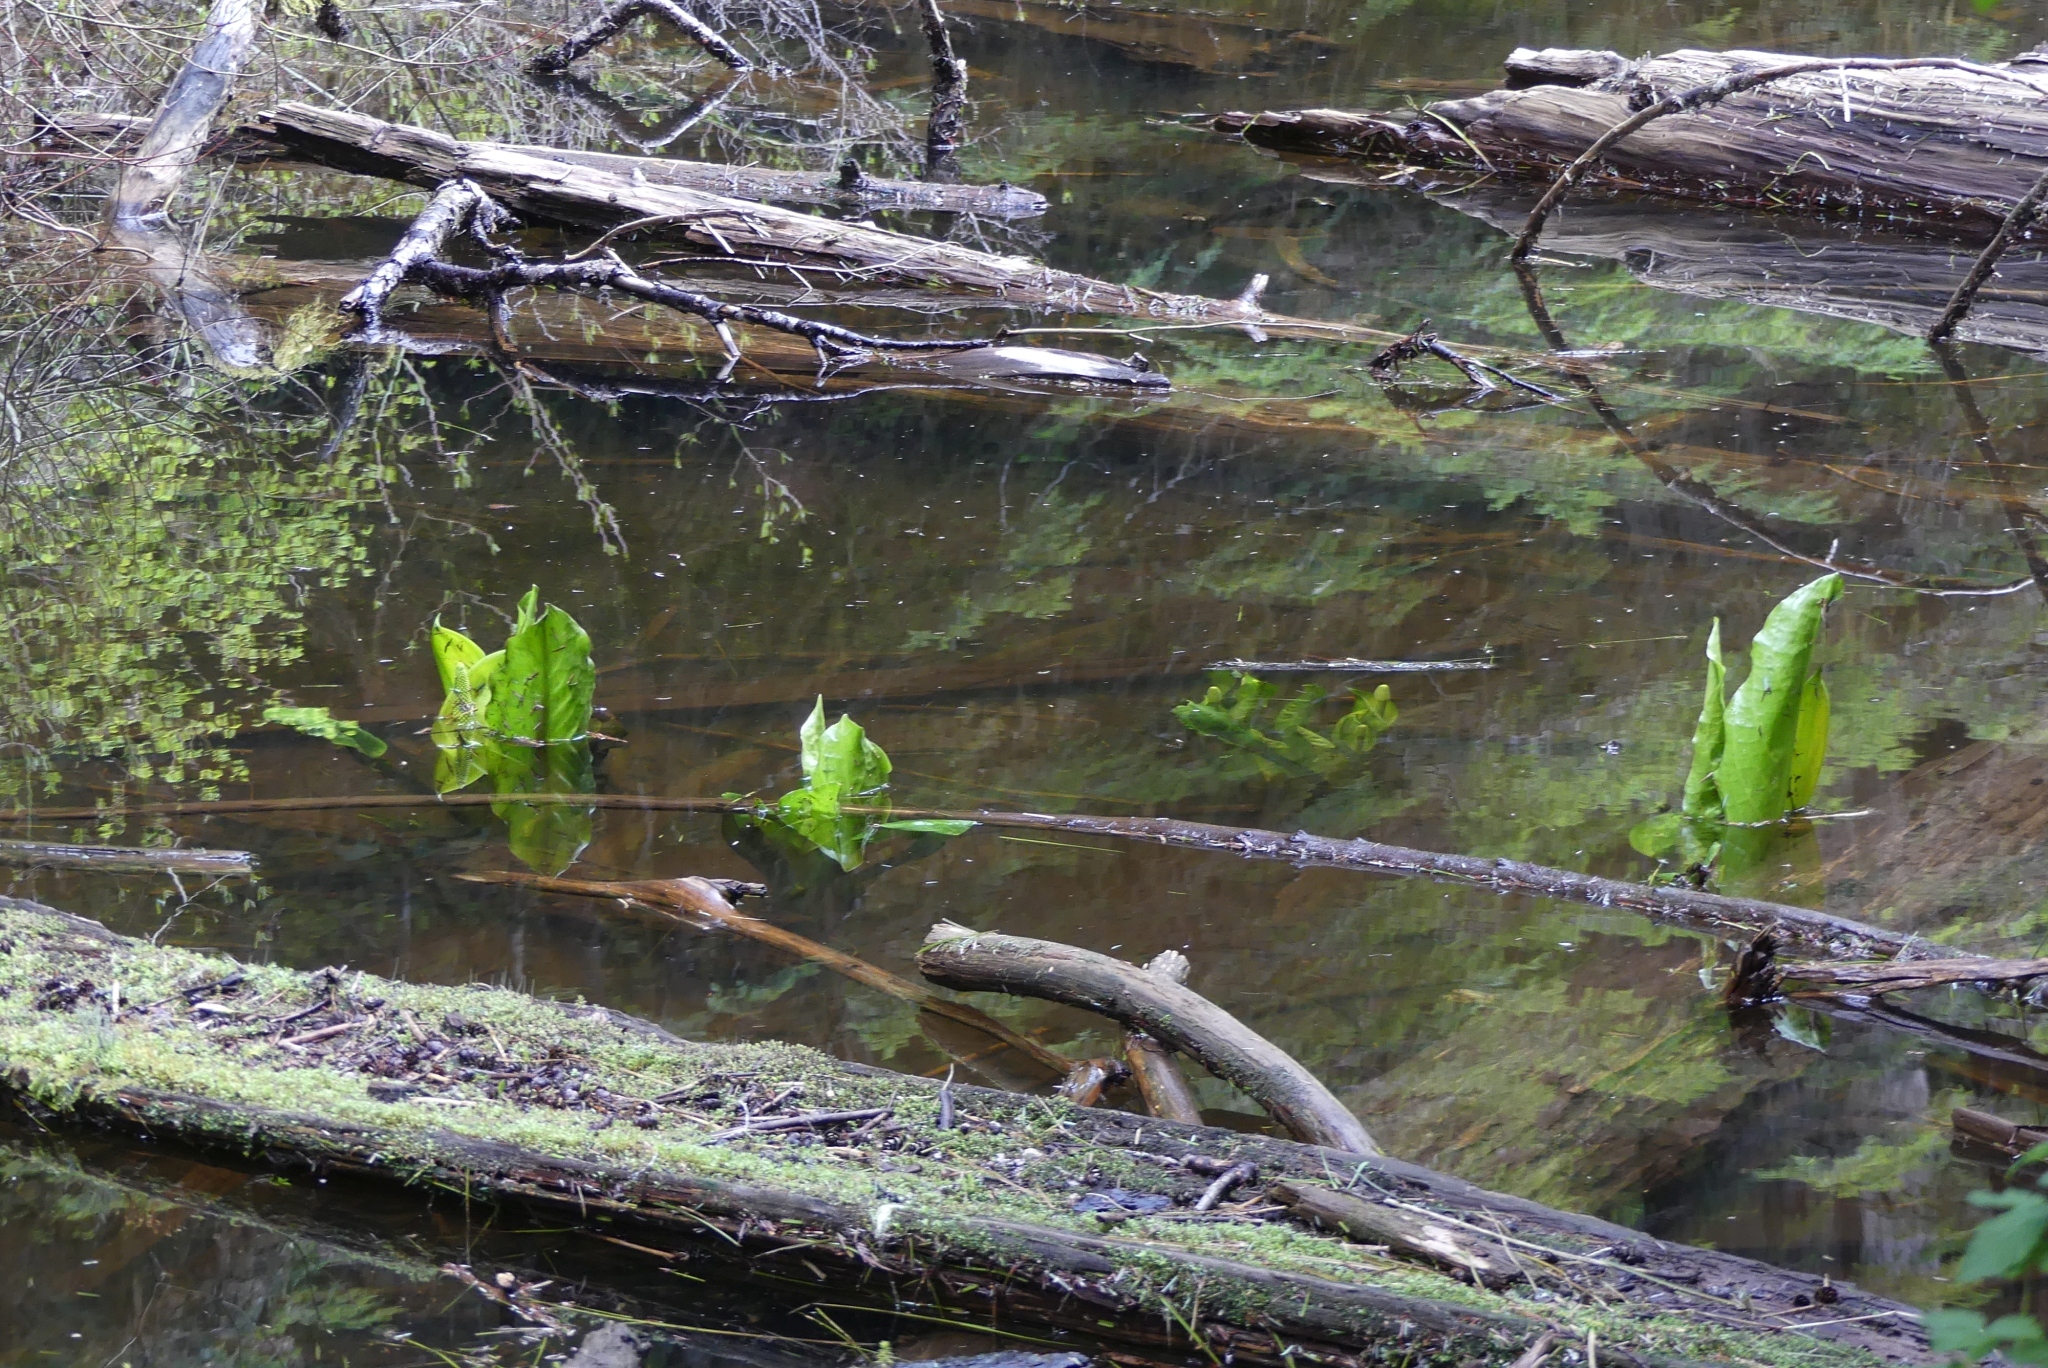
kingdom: Plantae
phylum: Tracheophyta
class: Liliopsida
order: Alismatales
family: Araceae
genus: Lysichiton
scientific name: Lysichiton americanus
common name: American skunk cabbage
